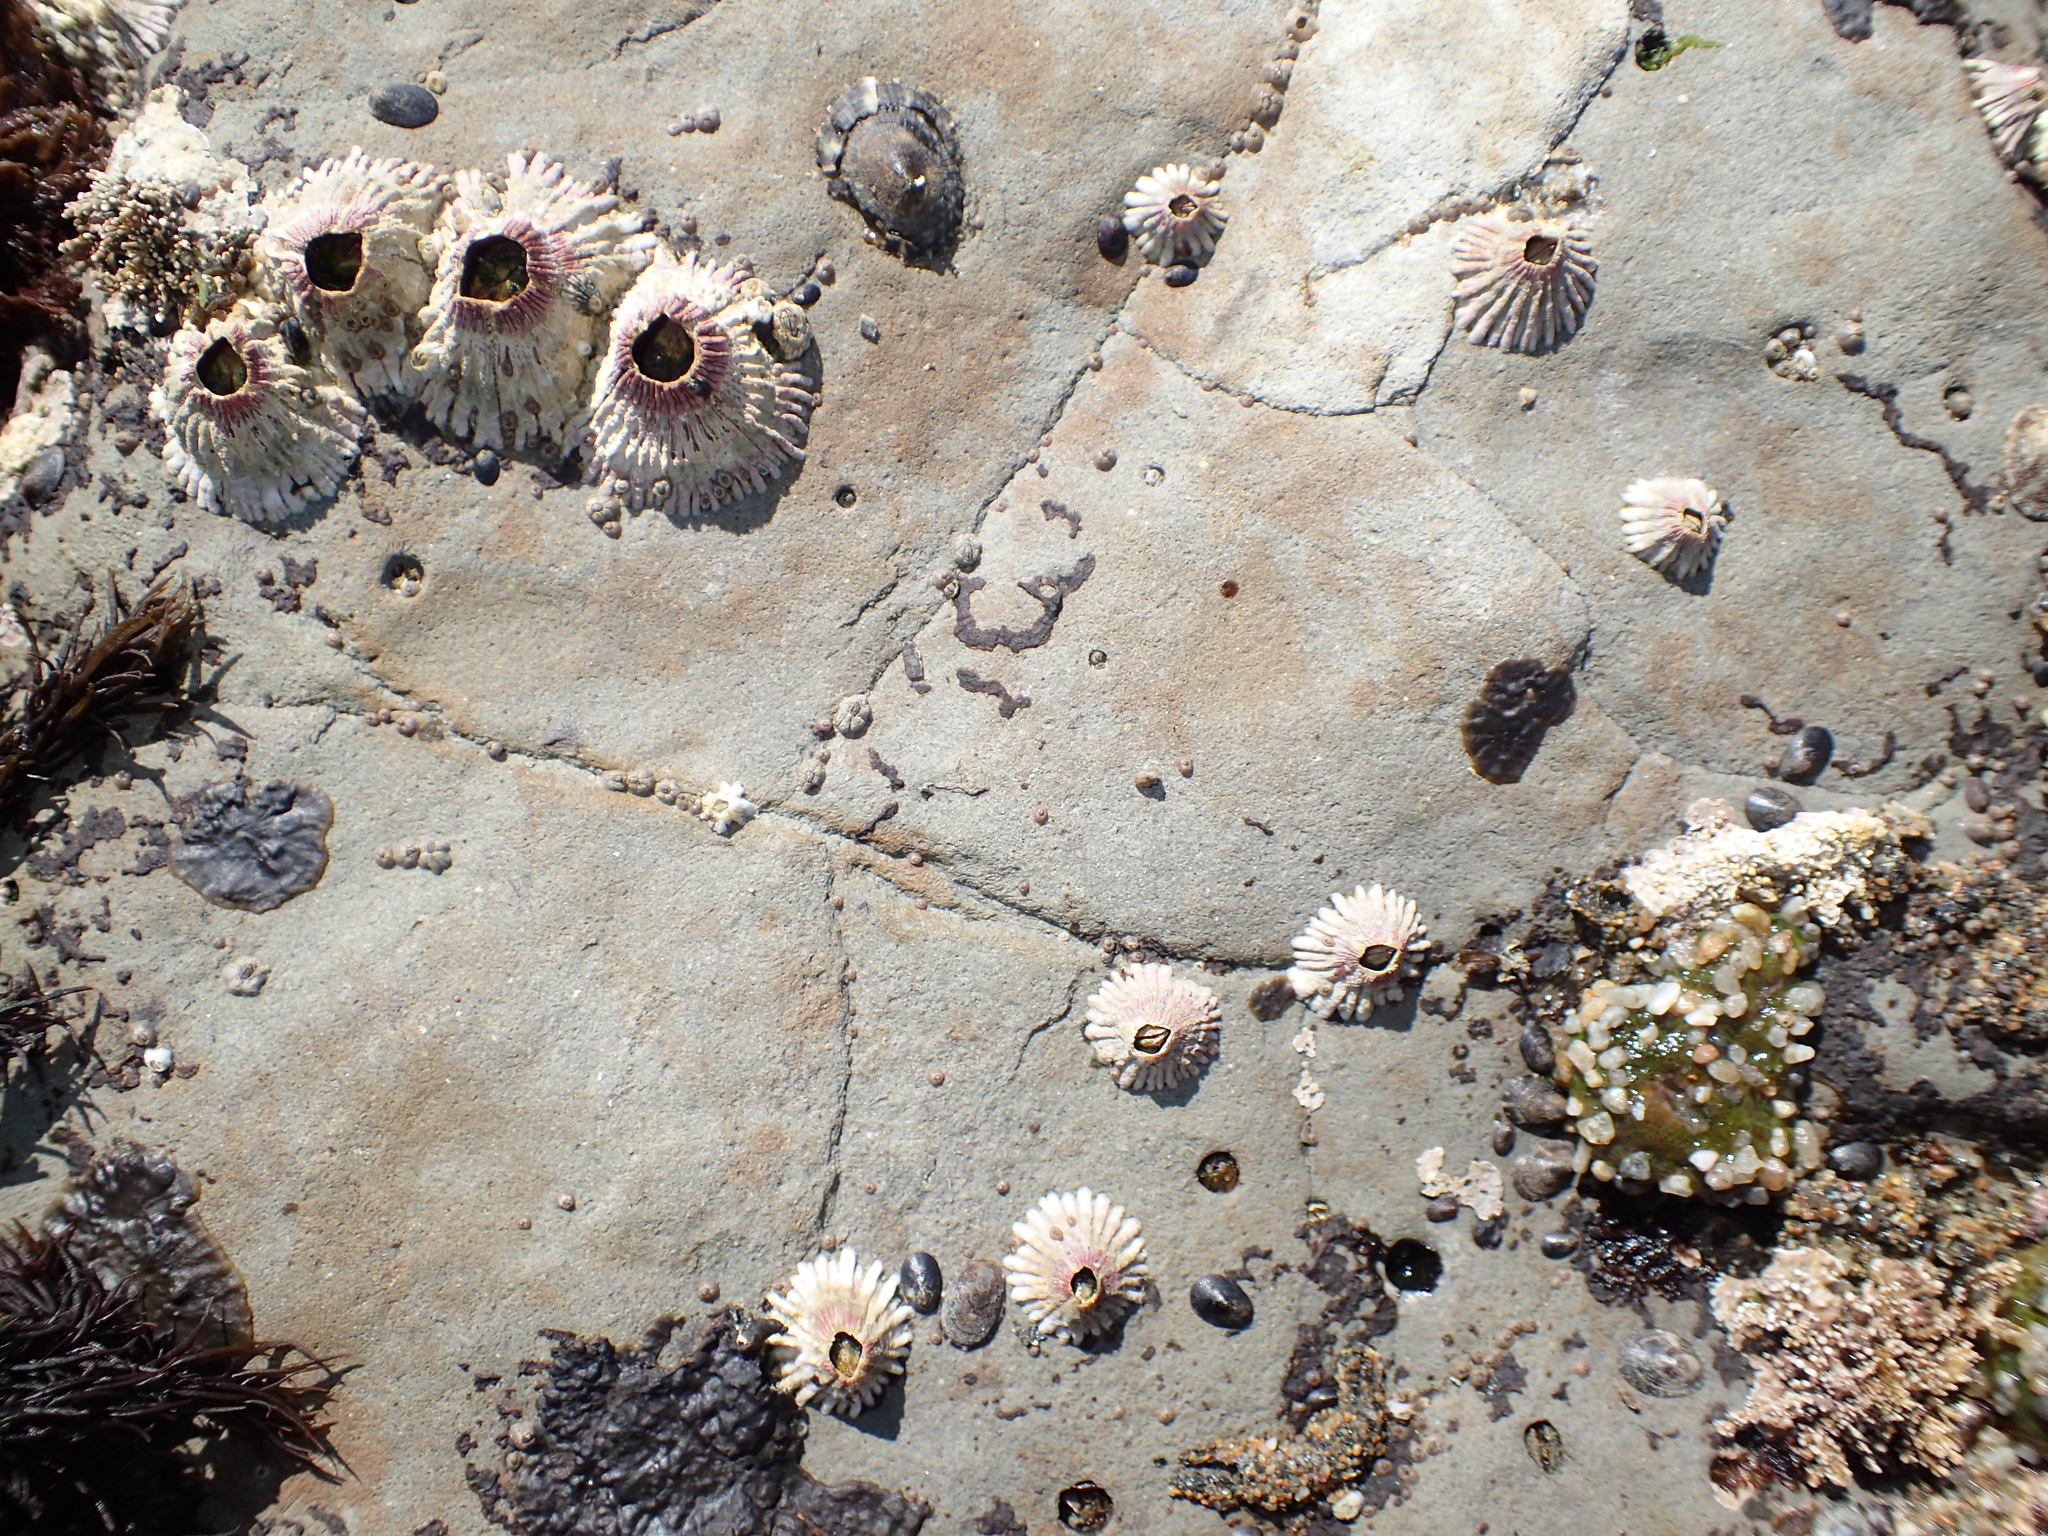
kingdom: Animalia
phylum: Arthropoda
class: Maxillopoda
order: Sessilia
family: Tetraclitidae
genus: Tetraclita
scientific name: Tetraclita rubescens
